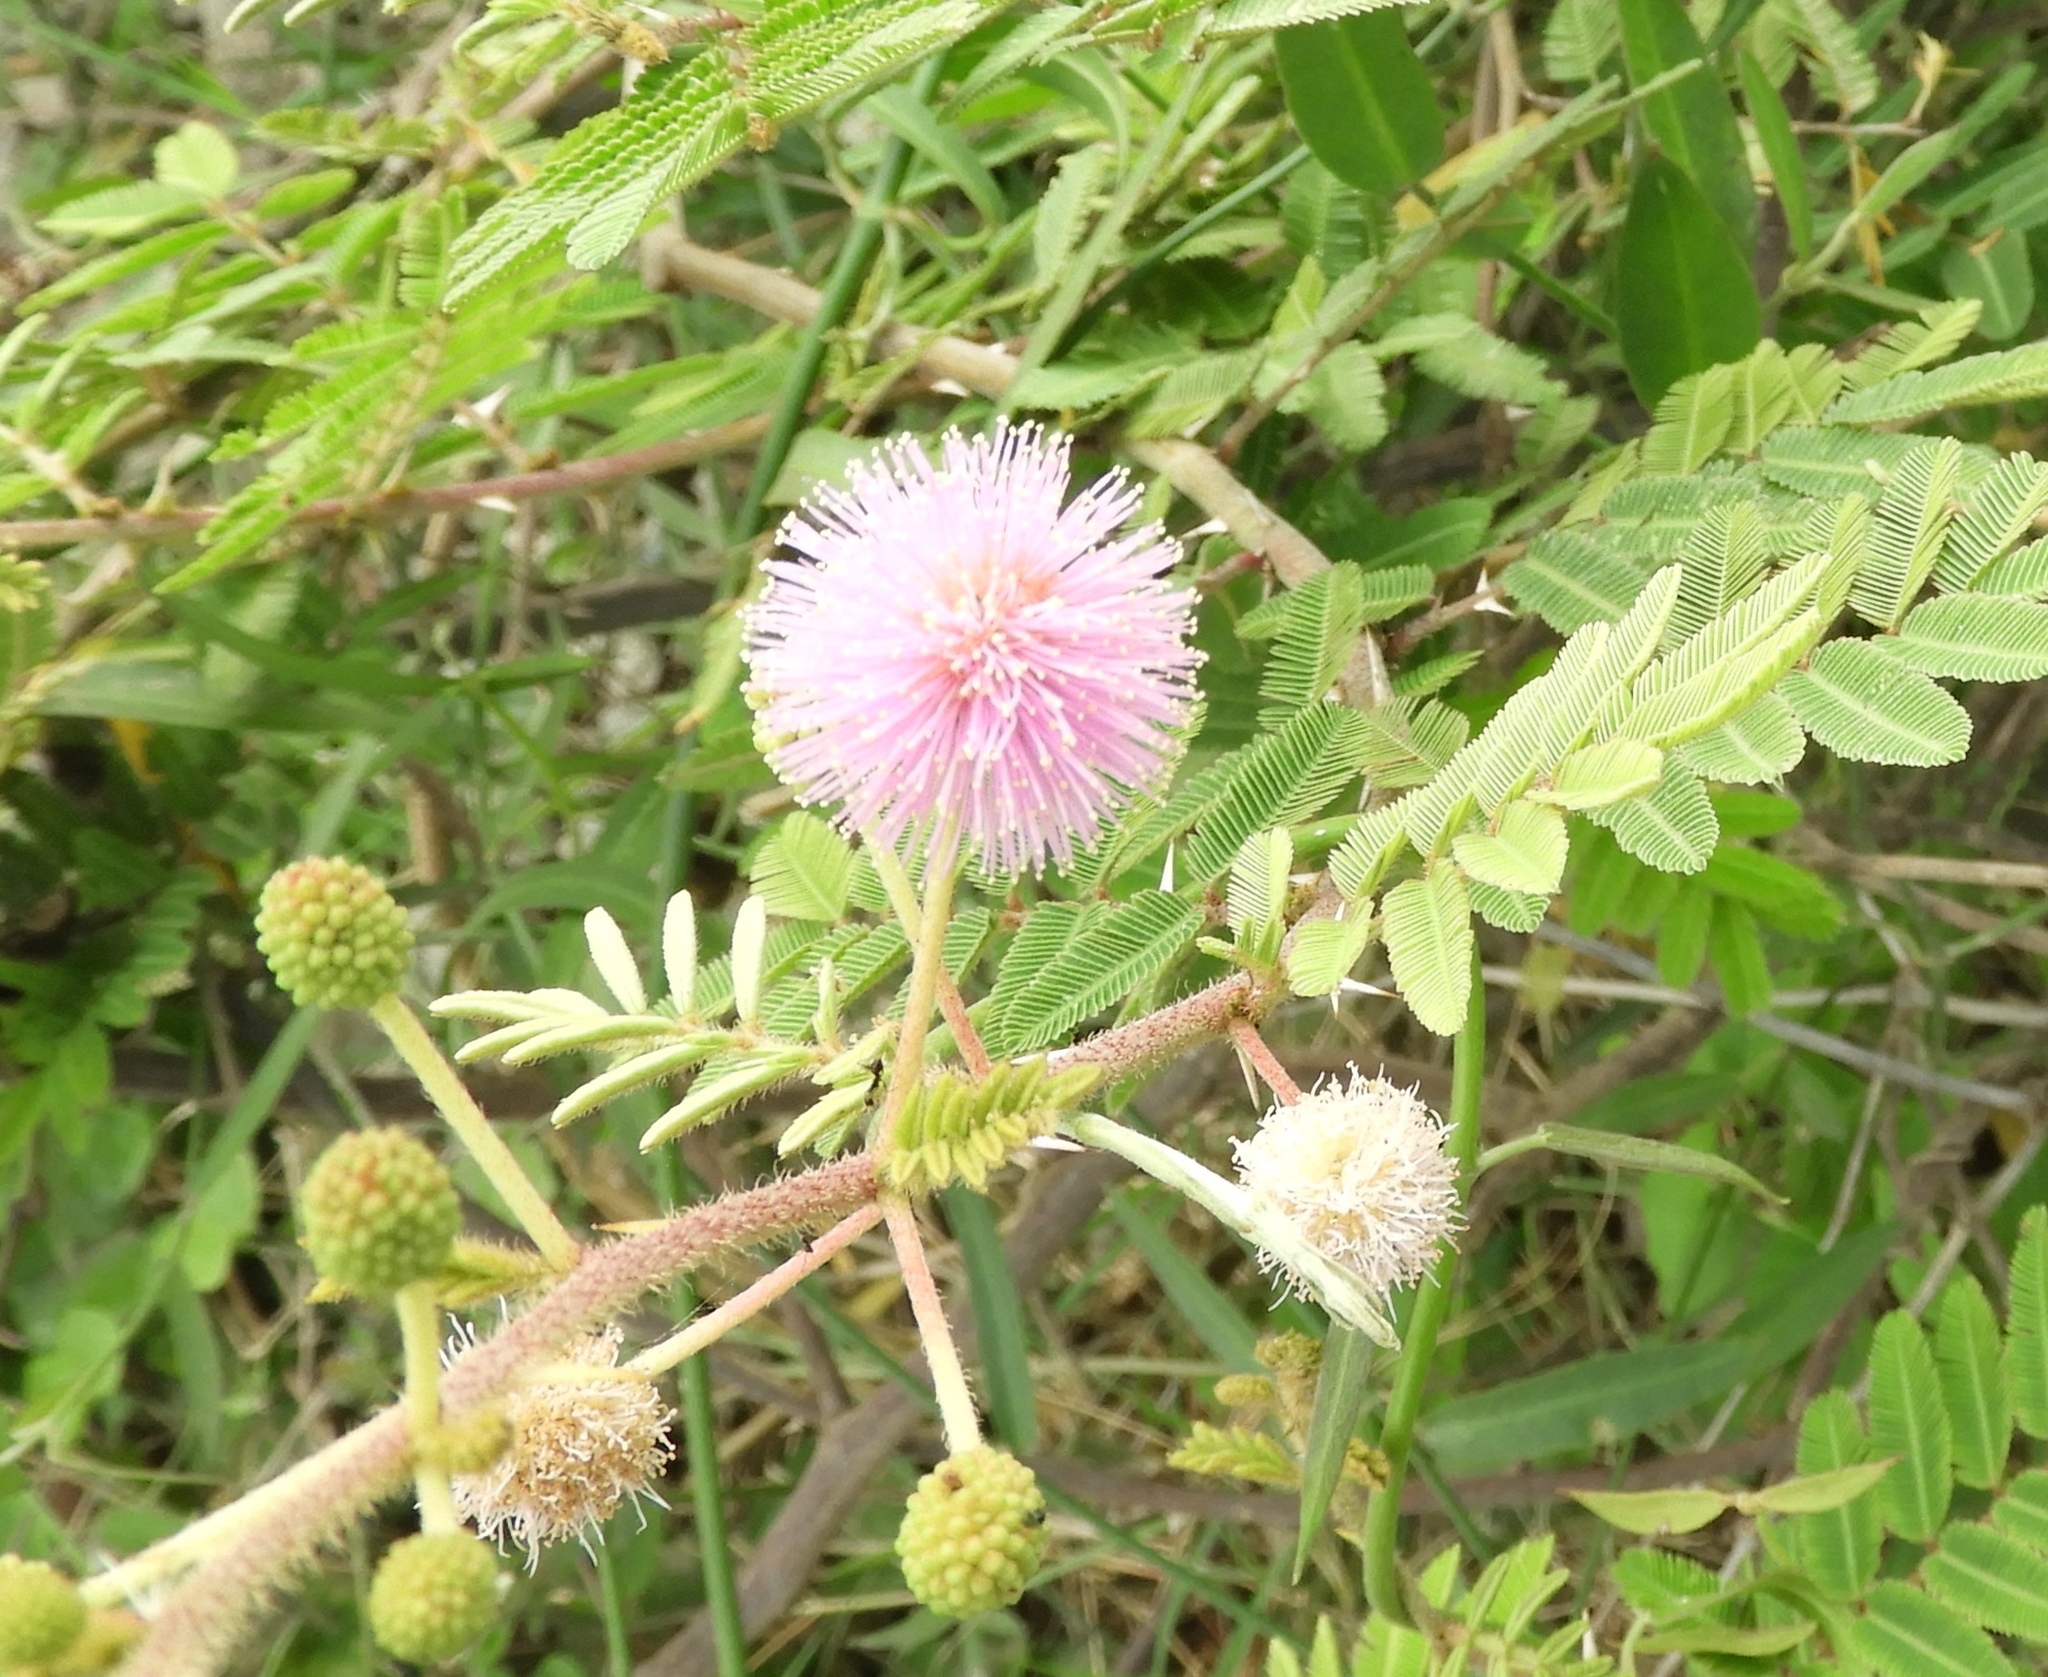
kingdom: Plantae
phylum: Tracheophyta
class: Magnoliopsida
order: Fabales
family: Fabaceae
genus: Mimosa
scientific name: Mimosa pigra
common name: Black mimosa
